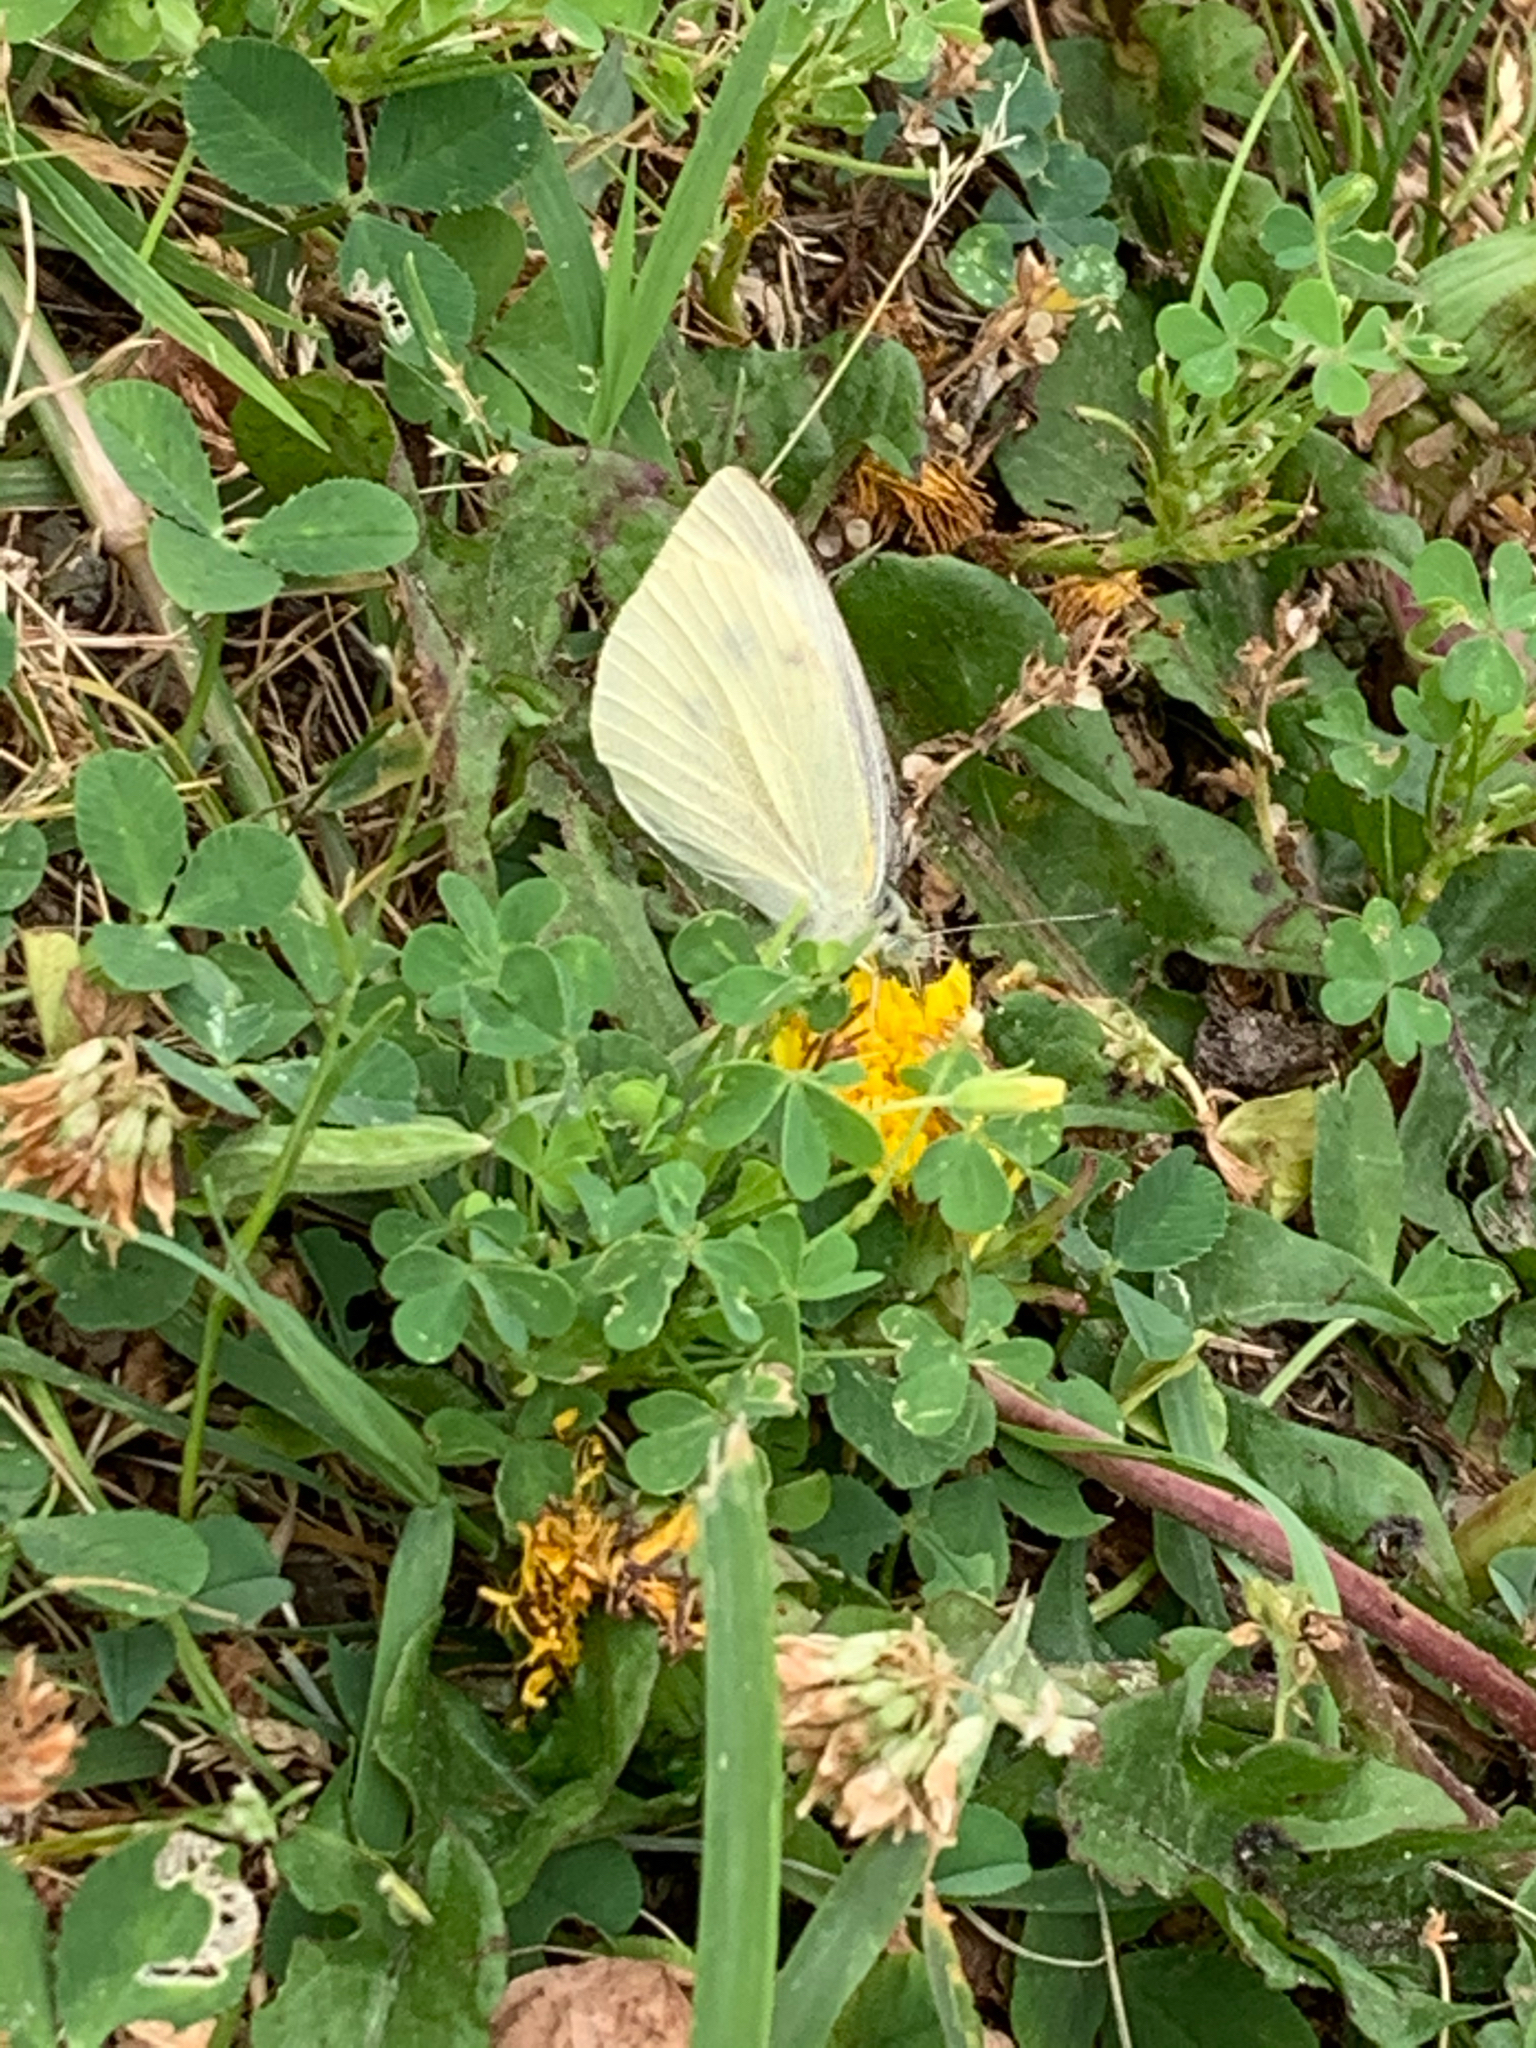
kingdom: Animalia
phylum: Arthropoda
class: Insecta
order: Lepidoptera
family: Pieridae
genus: Pieris
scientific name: Pieris rapae
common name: Small white
